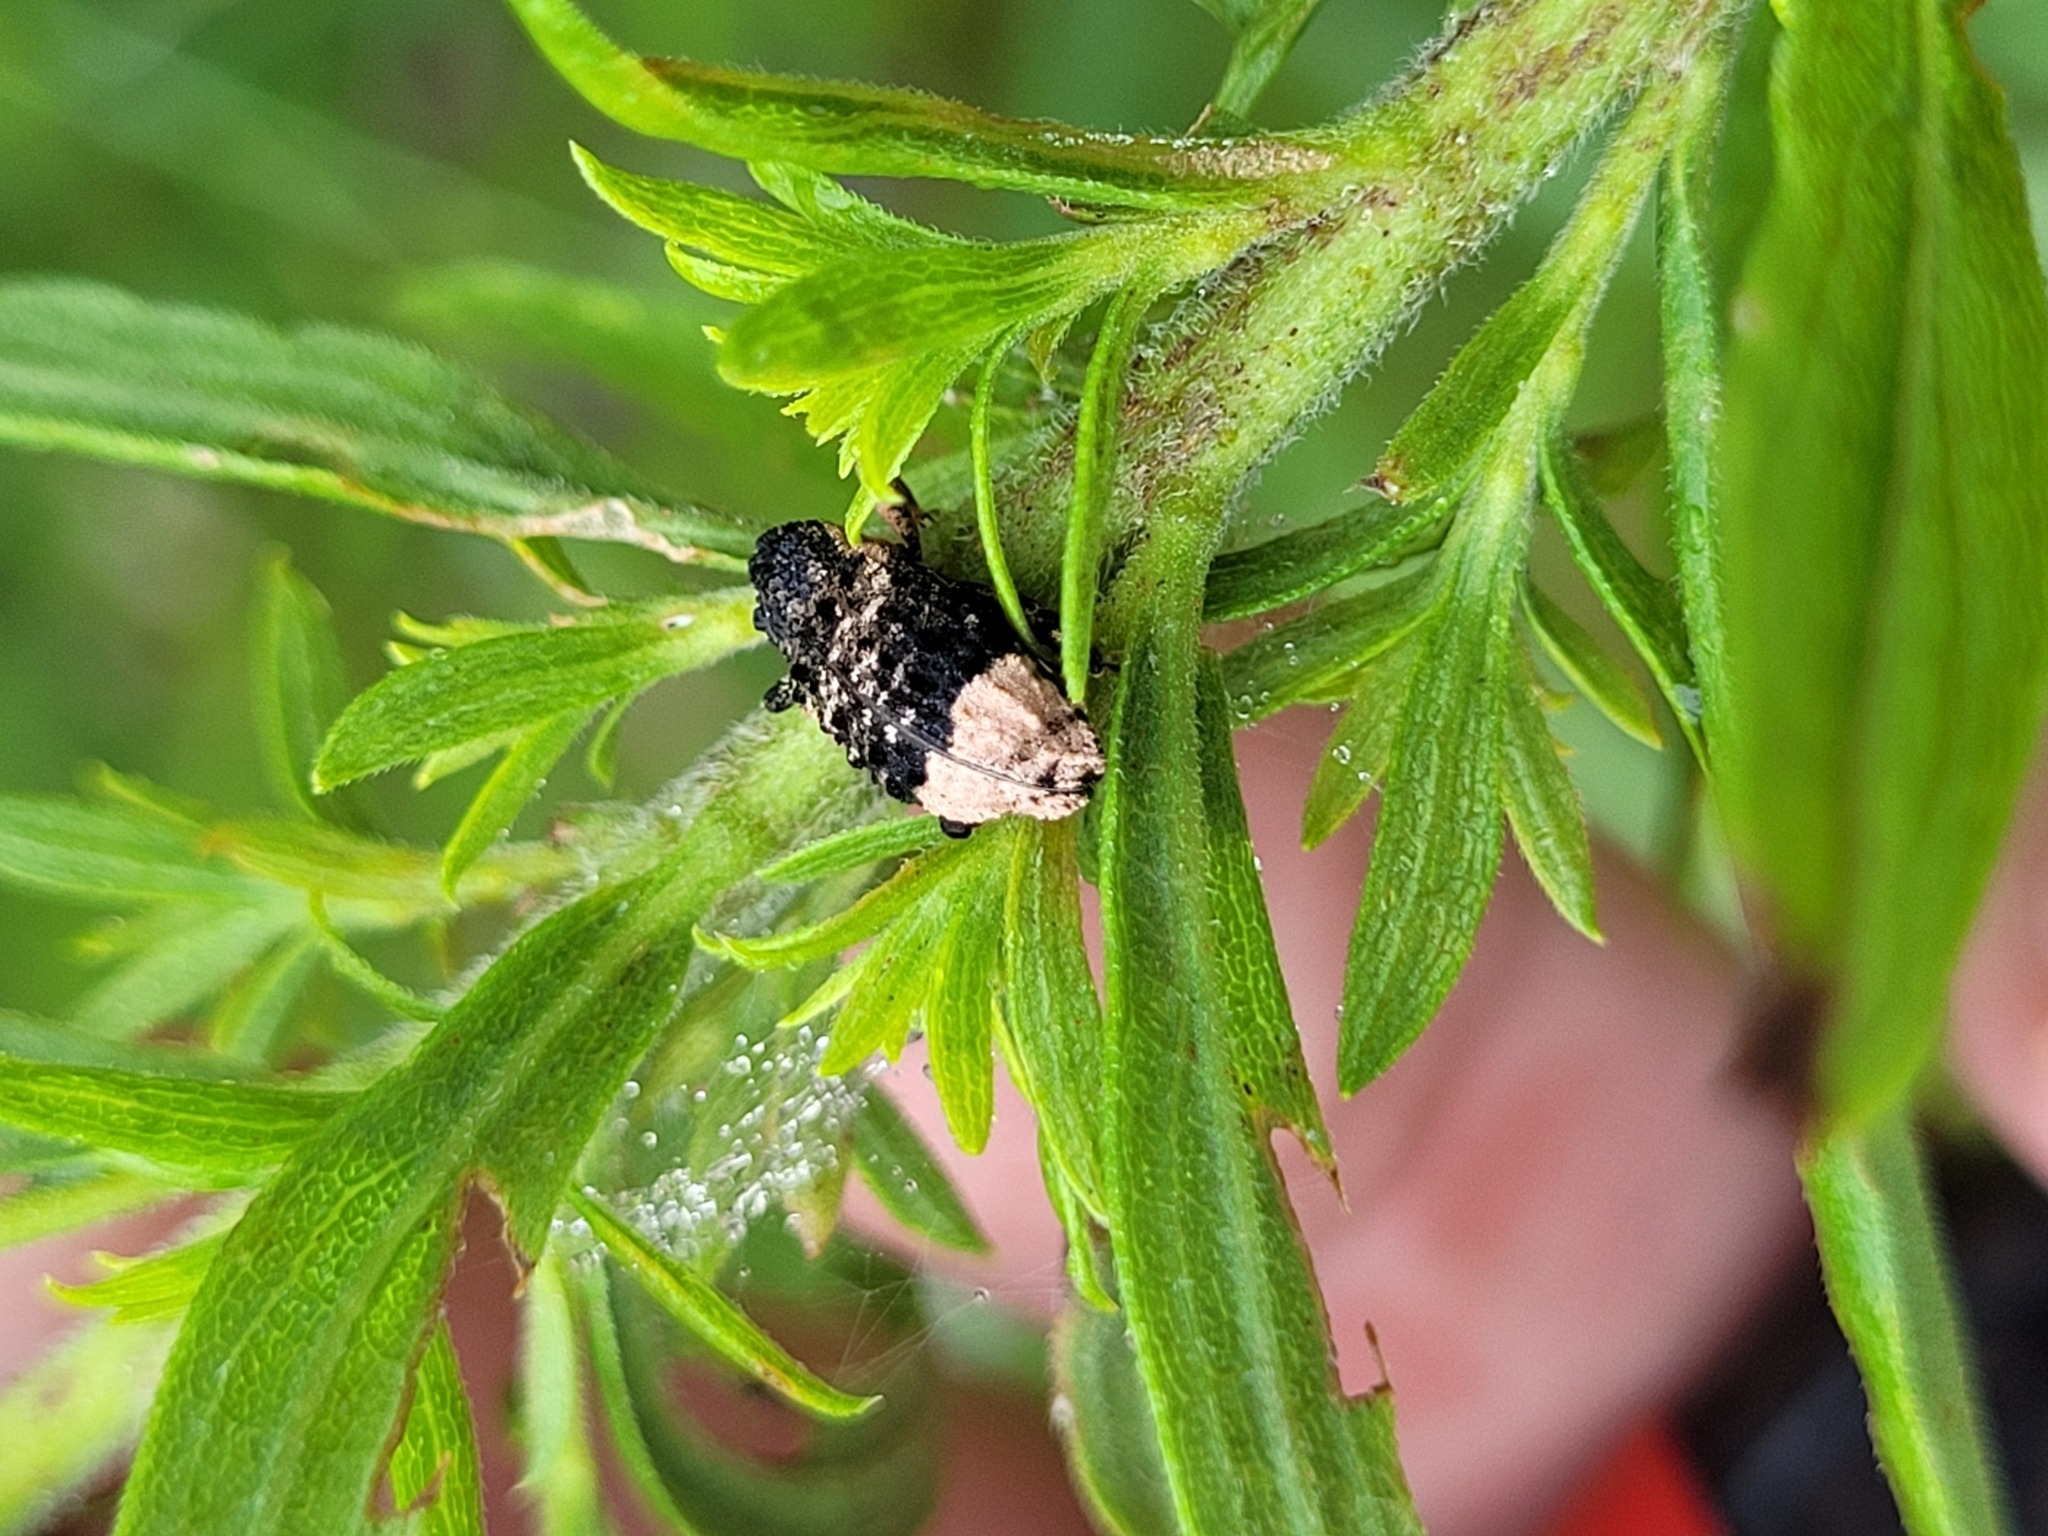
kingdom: Animalia
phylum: Arthropoda
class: Insecta
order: Coleoptera
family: Curculionidae
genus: Cryptorhynchus
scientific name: Cryptorhynchus lapathi
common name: Weevil
